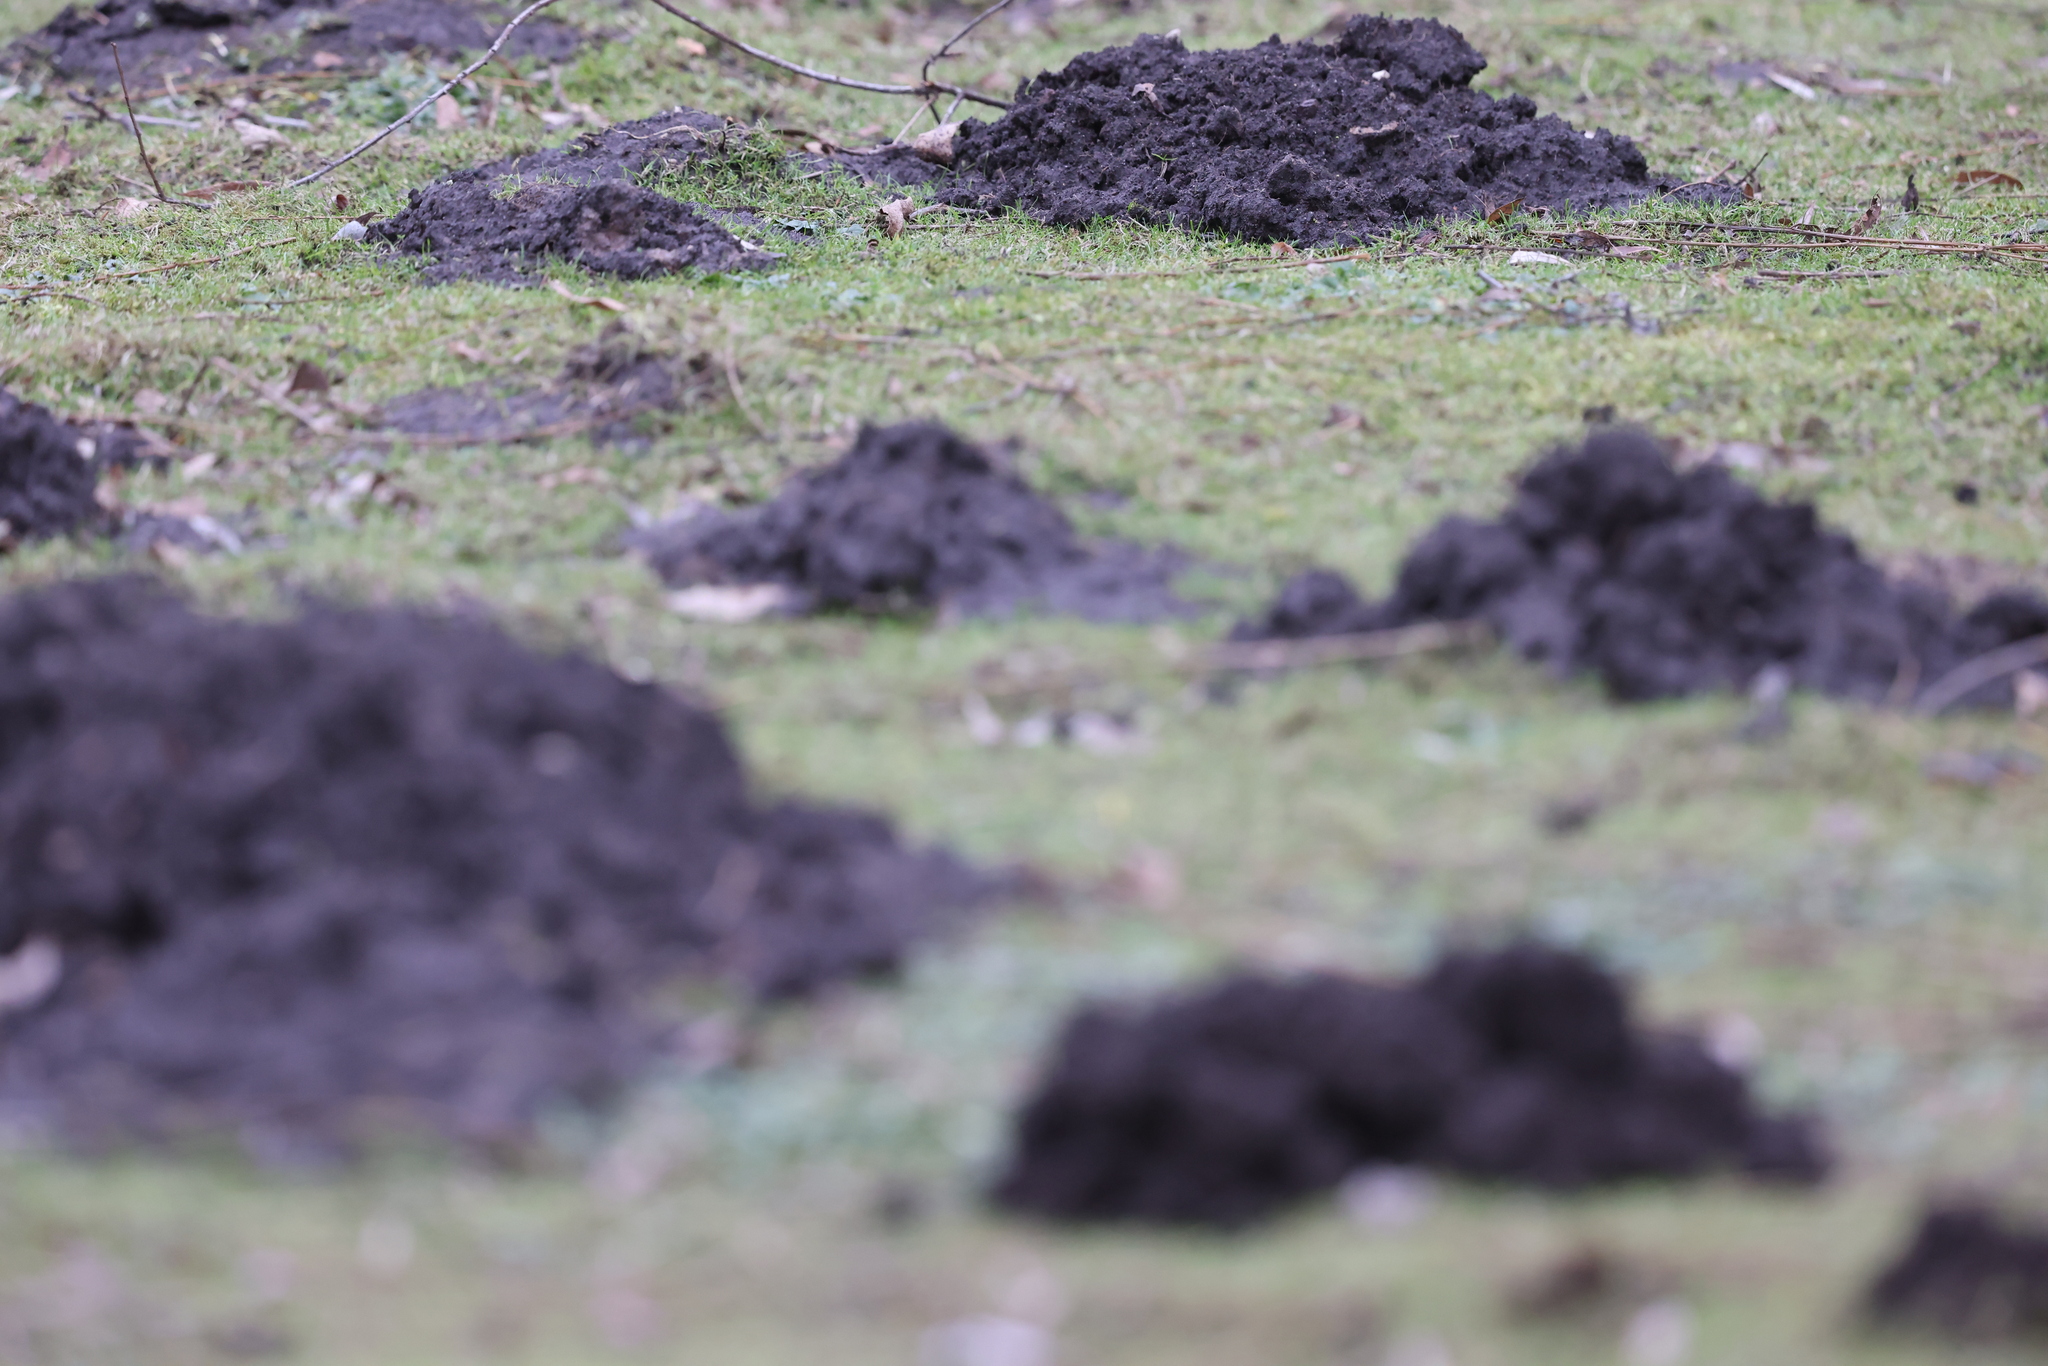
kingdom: Animalia
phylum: Chordata
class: Mammalia
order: Soricomorpha
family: Talpidae
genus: Talpa
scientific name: Talpa europaea
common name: European mole
